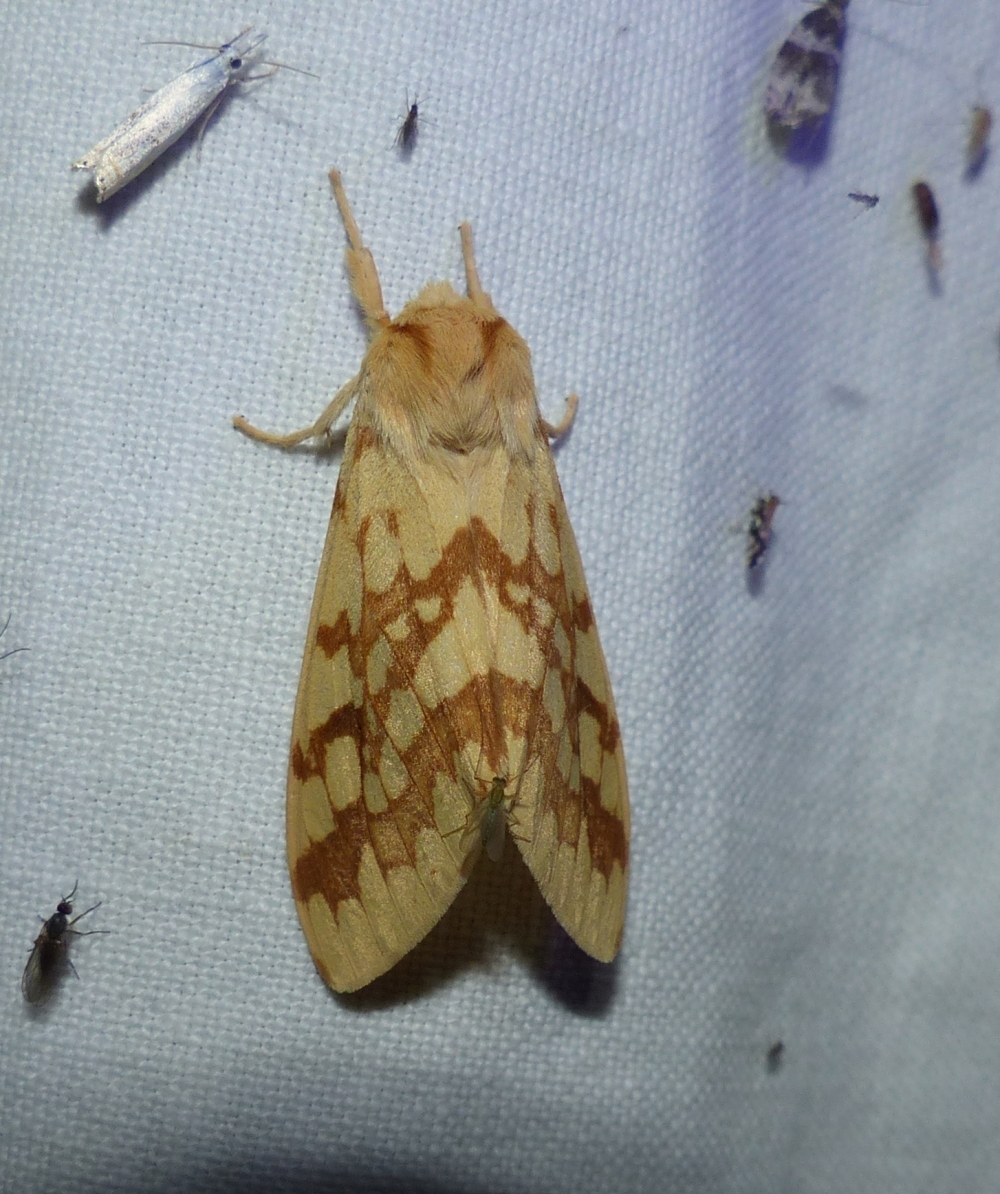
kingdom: Animalia
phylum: Arthropoda
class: Insecta
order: Lepidoptera
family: Erebidae
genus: Lophocampa
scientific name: Lophocampa maculata
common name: Spotted tussock moth
